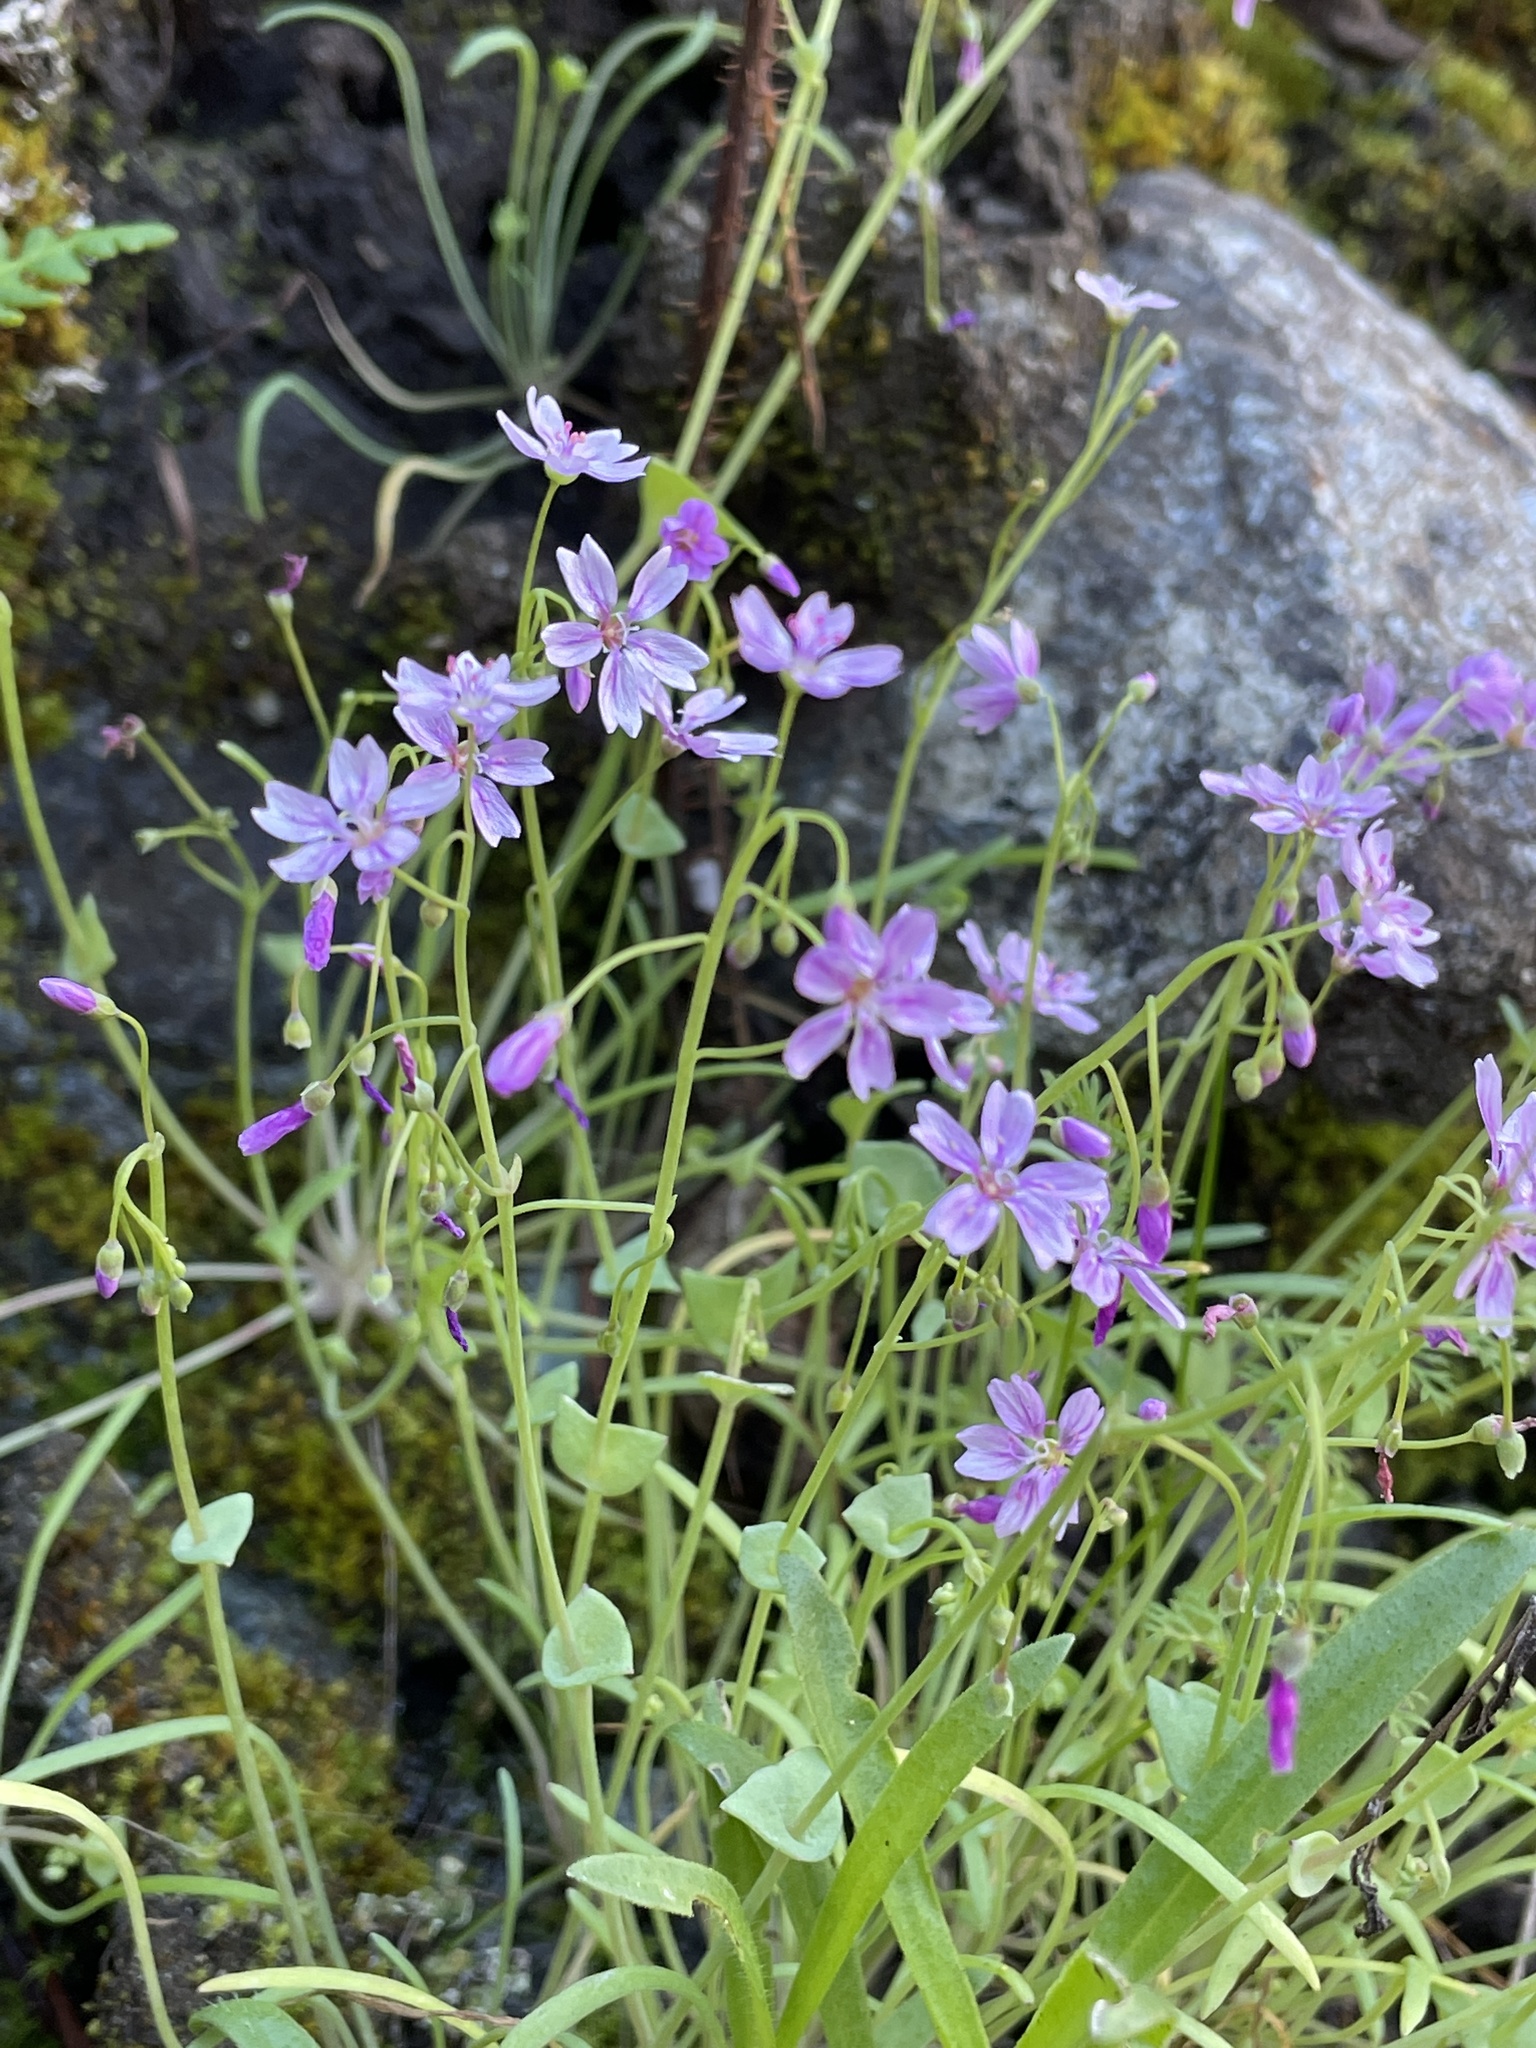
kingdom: Plantae
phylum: Tracheophyta
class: Magnoliopsida
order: Caryophyllales
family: Montiaceae
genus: Claytonia
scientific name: Claytonia gypsophiloides
